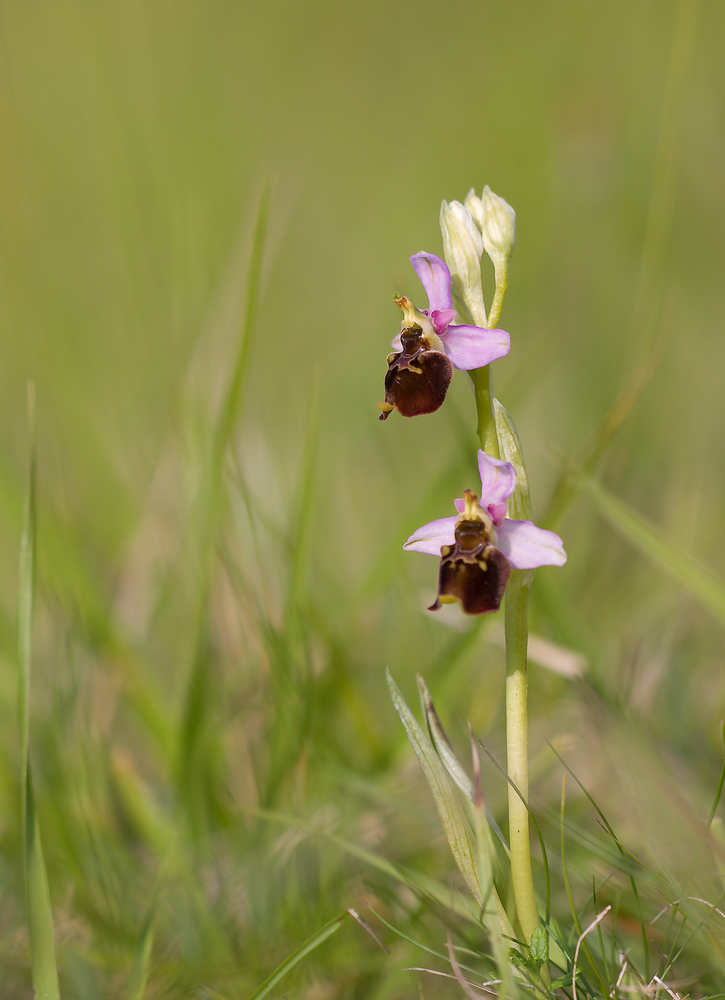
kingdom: Plantae
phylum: Tracheophyta
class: Liliopsida
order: Asparagales
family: Orchidaceae
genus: Ophrys
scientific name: Ophrys holosericea
